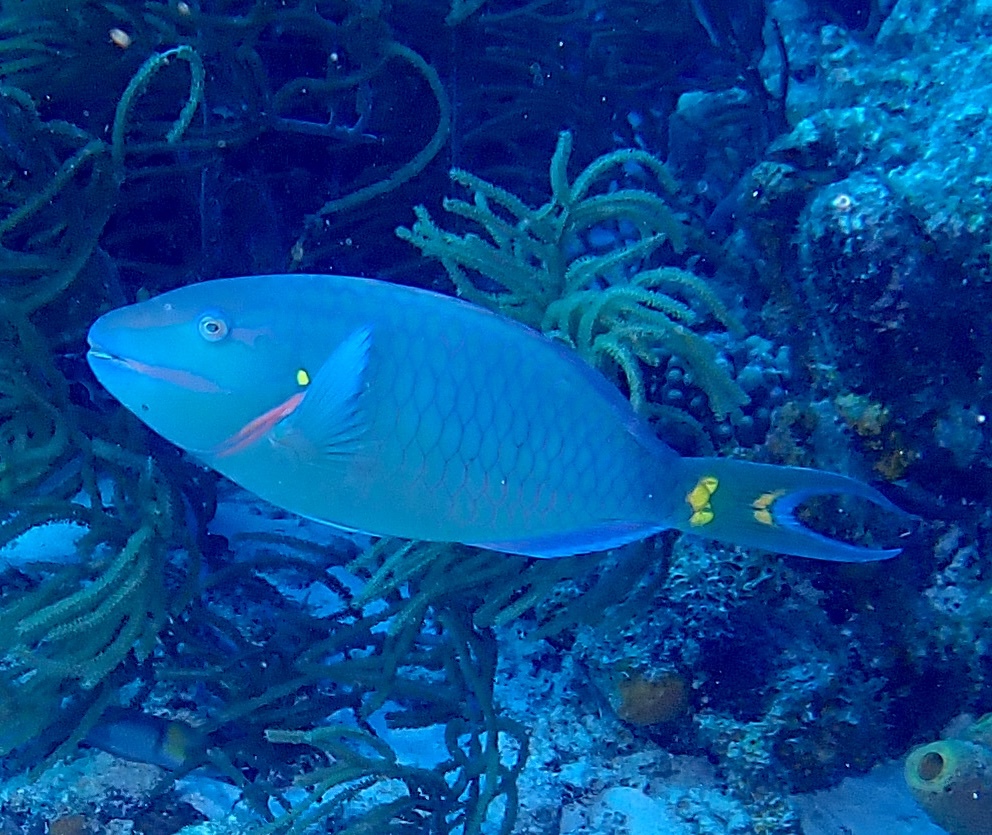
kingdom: Animalia
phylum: Chordata
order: Perciformes
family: Scaridae
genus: Sparisoma
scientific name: Sparisoma viride
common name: Stoplight parrotfish
